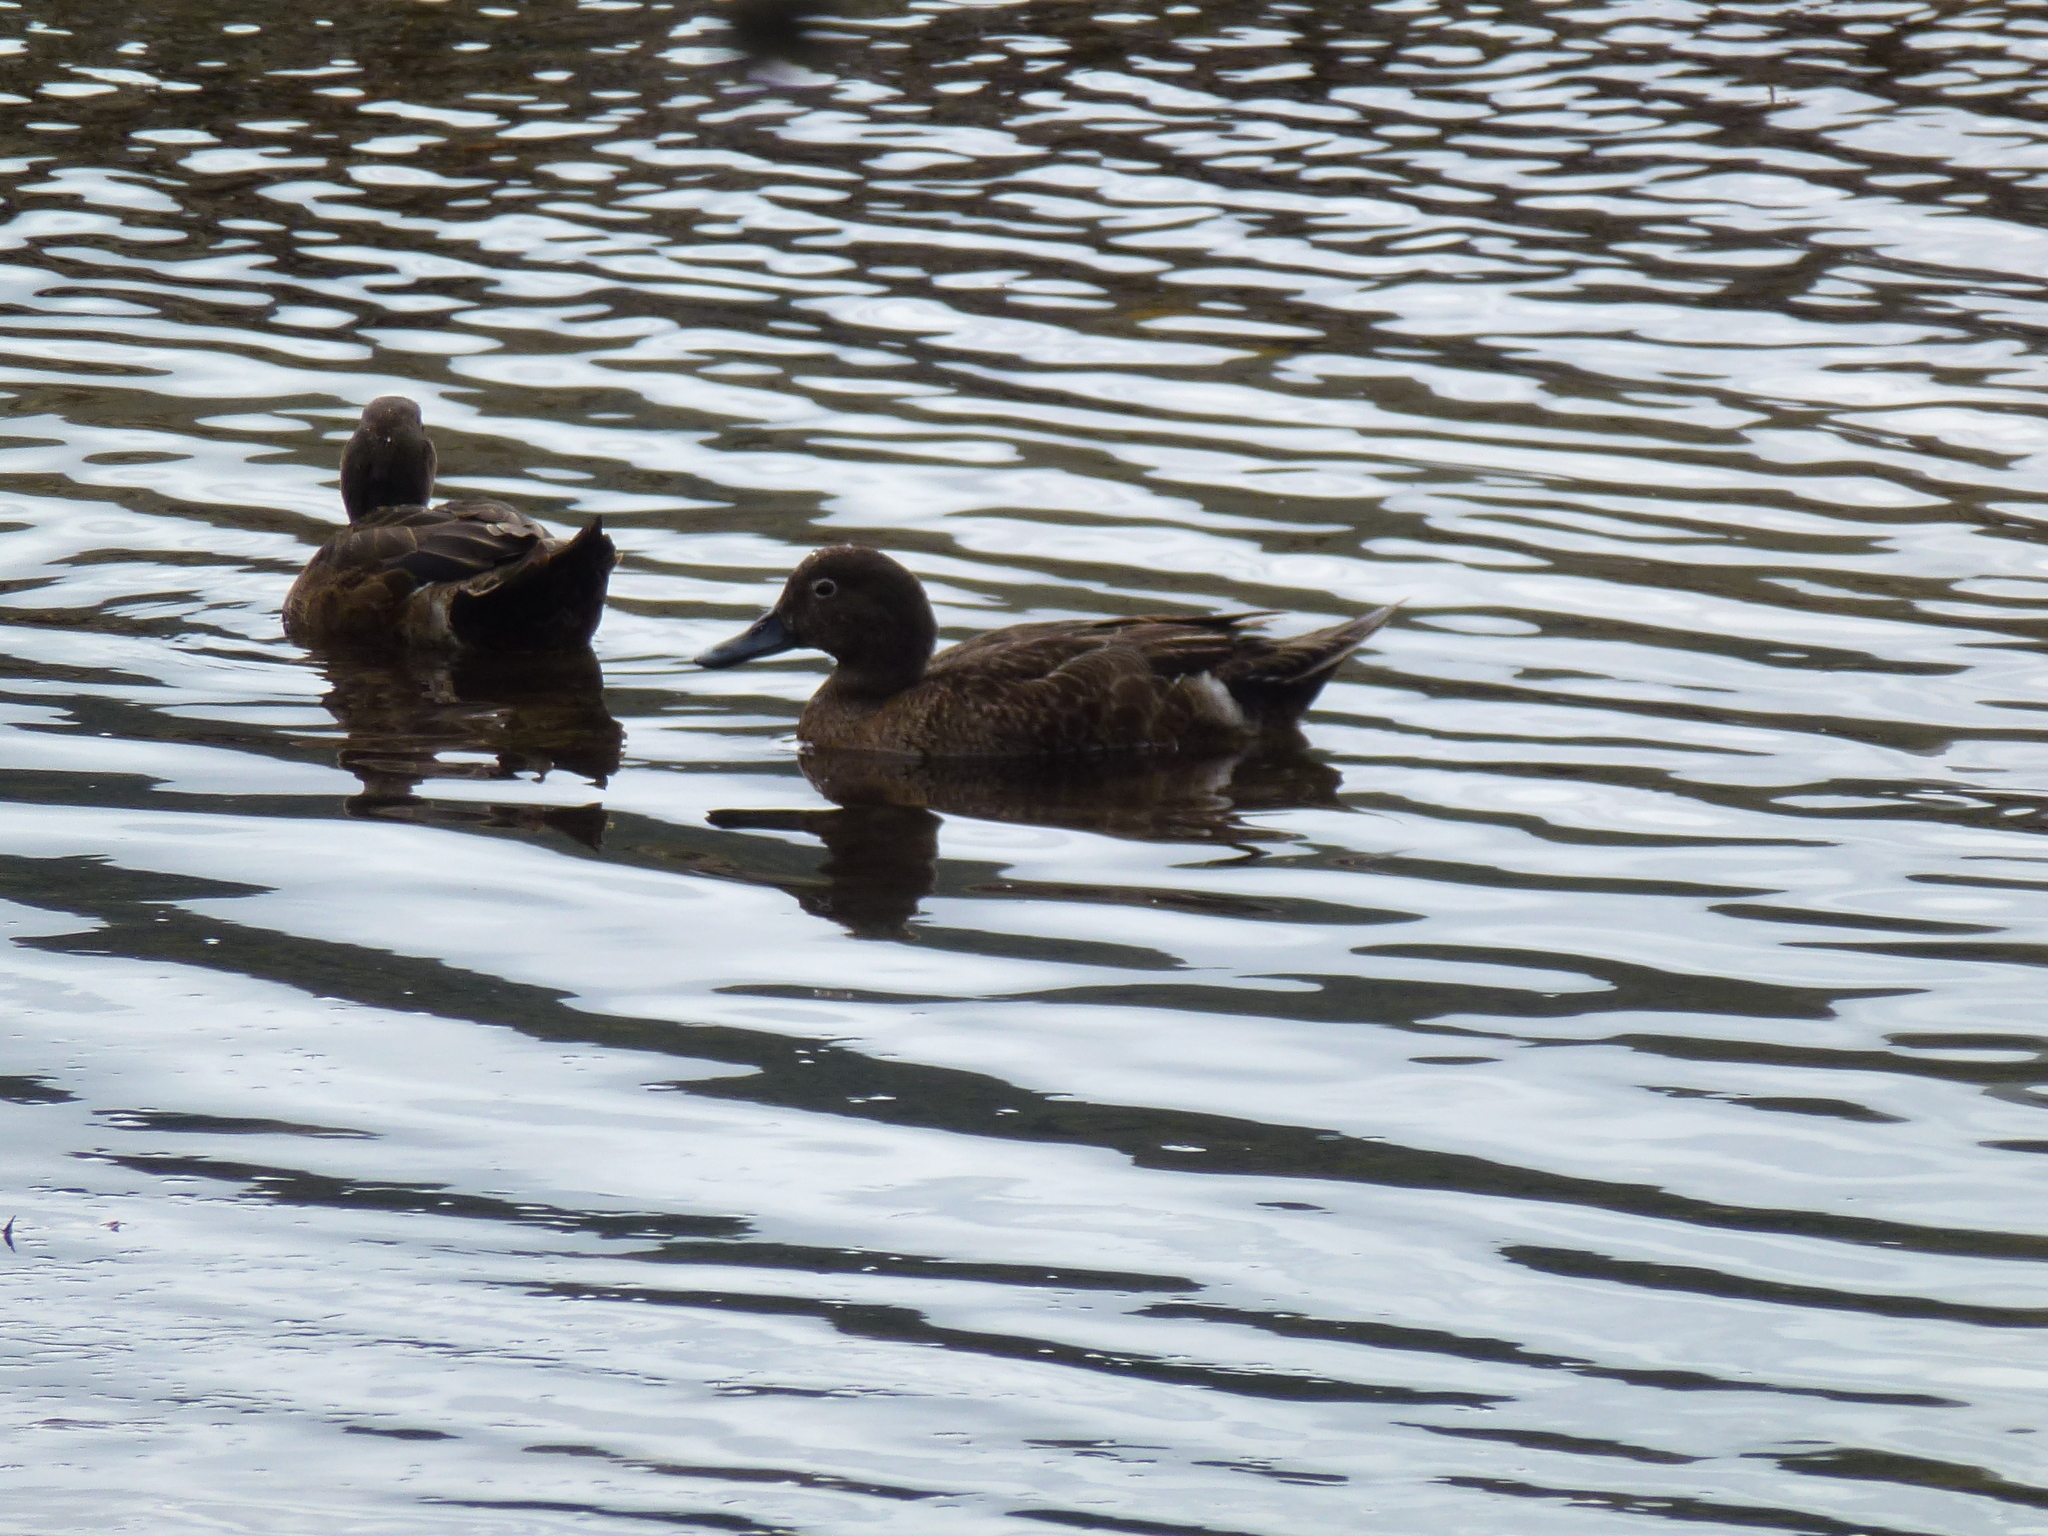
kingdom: Animalia
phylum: Chordata
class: Aves
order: Anseriformes
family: Anatidae
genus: Anas
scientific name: Anas chlorotis
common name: Brown teal
